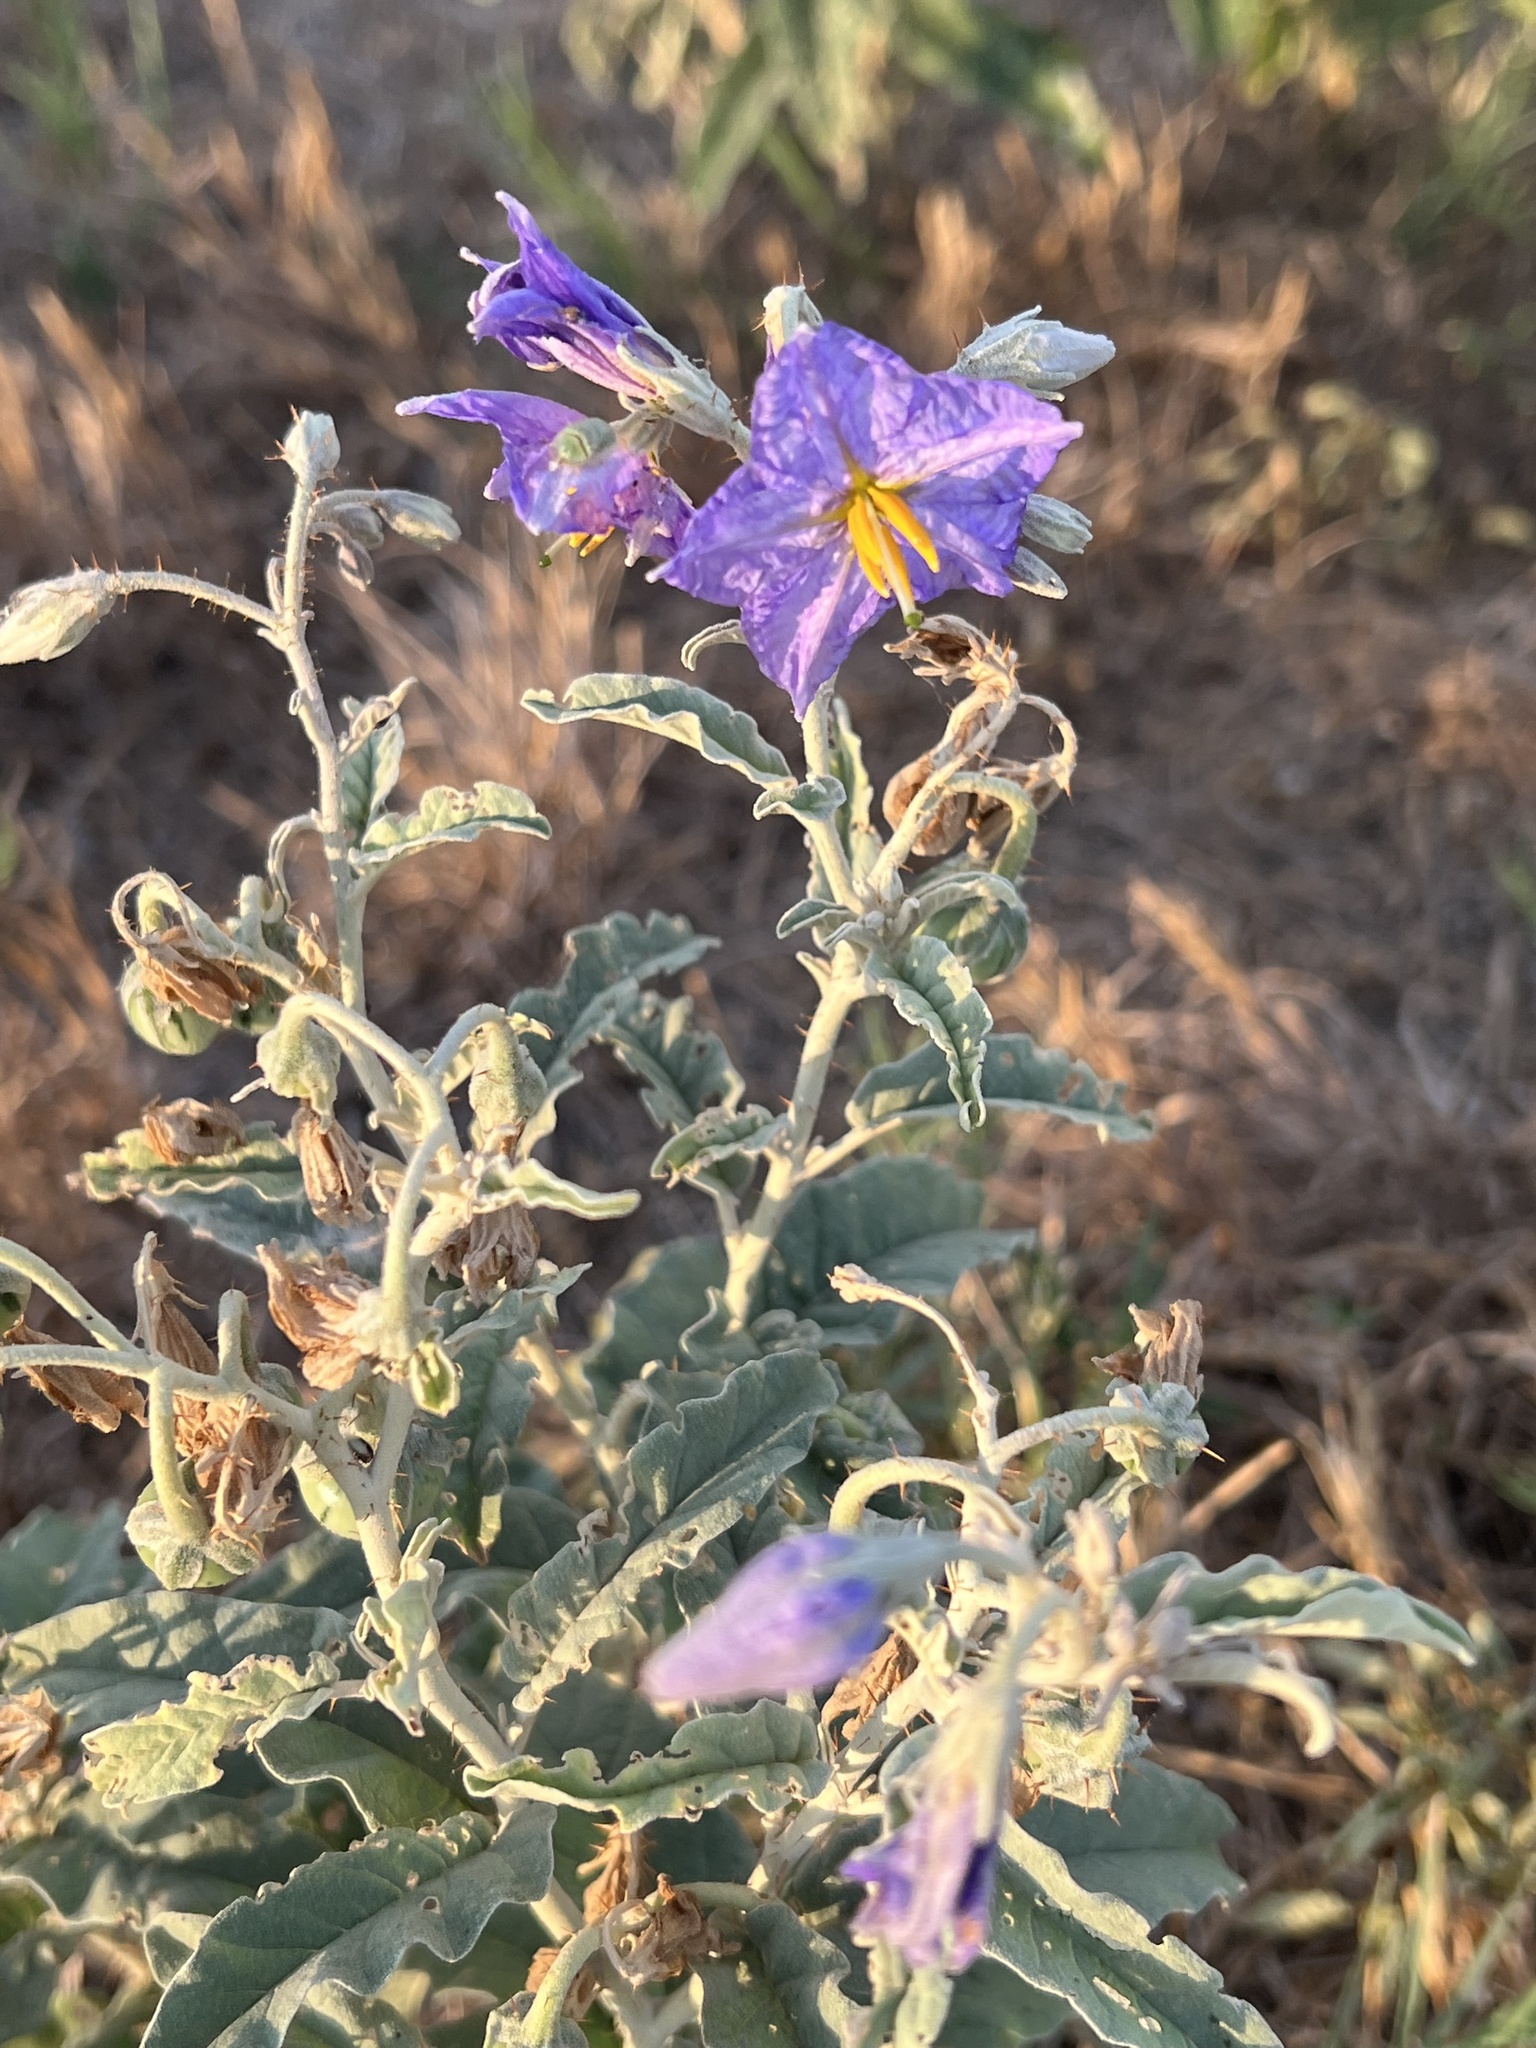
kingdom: Plantae
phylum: Tracheophyta
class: Magnoliopsida
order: Solanales
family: Solanaceae
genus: Solanum
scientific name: Solanum elaeagnifolium
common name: Silverleaf nightshade
